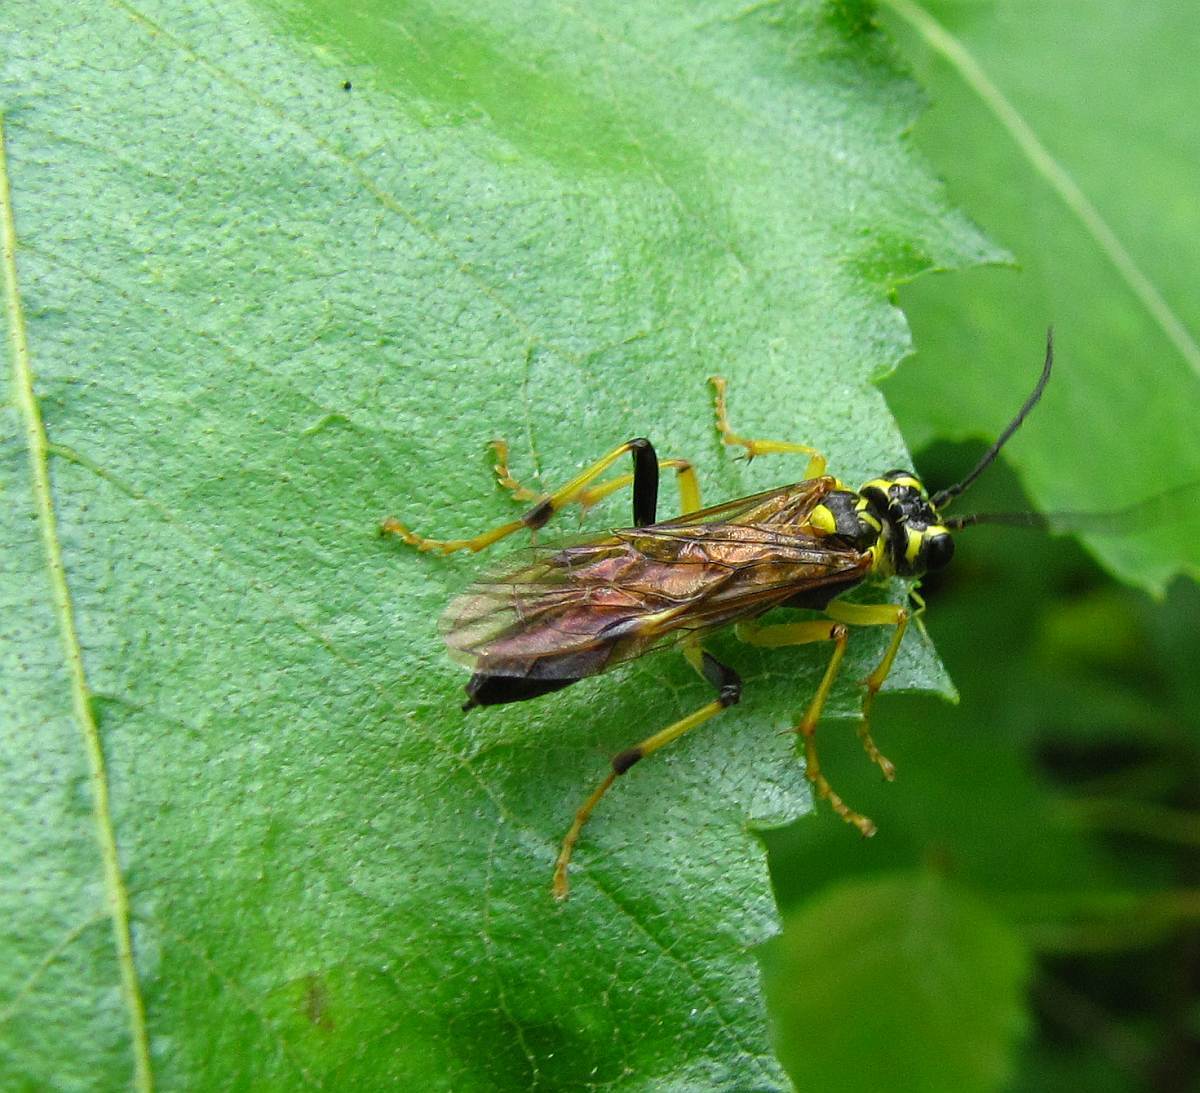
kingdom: Animalia
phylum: Arthropoda
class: Insecta
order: Hymenoptera
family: Tenthredinidae
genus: Tenthredo
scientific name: Tenthredo verticalis
